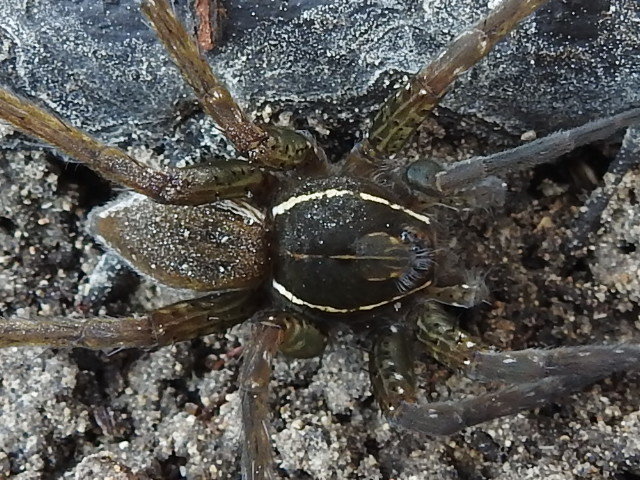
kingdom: Animalia
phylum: Arthropoda
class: Arachnida
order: Araneae
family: Pisauridae
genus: Dolomedes
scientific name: Dolomedes triton
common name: Six-spotted fishing spider
